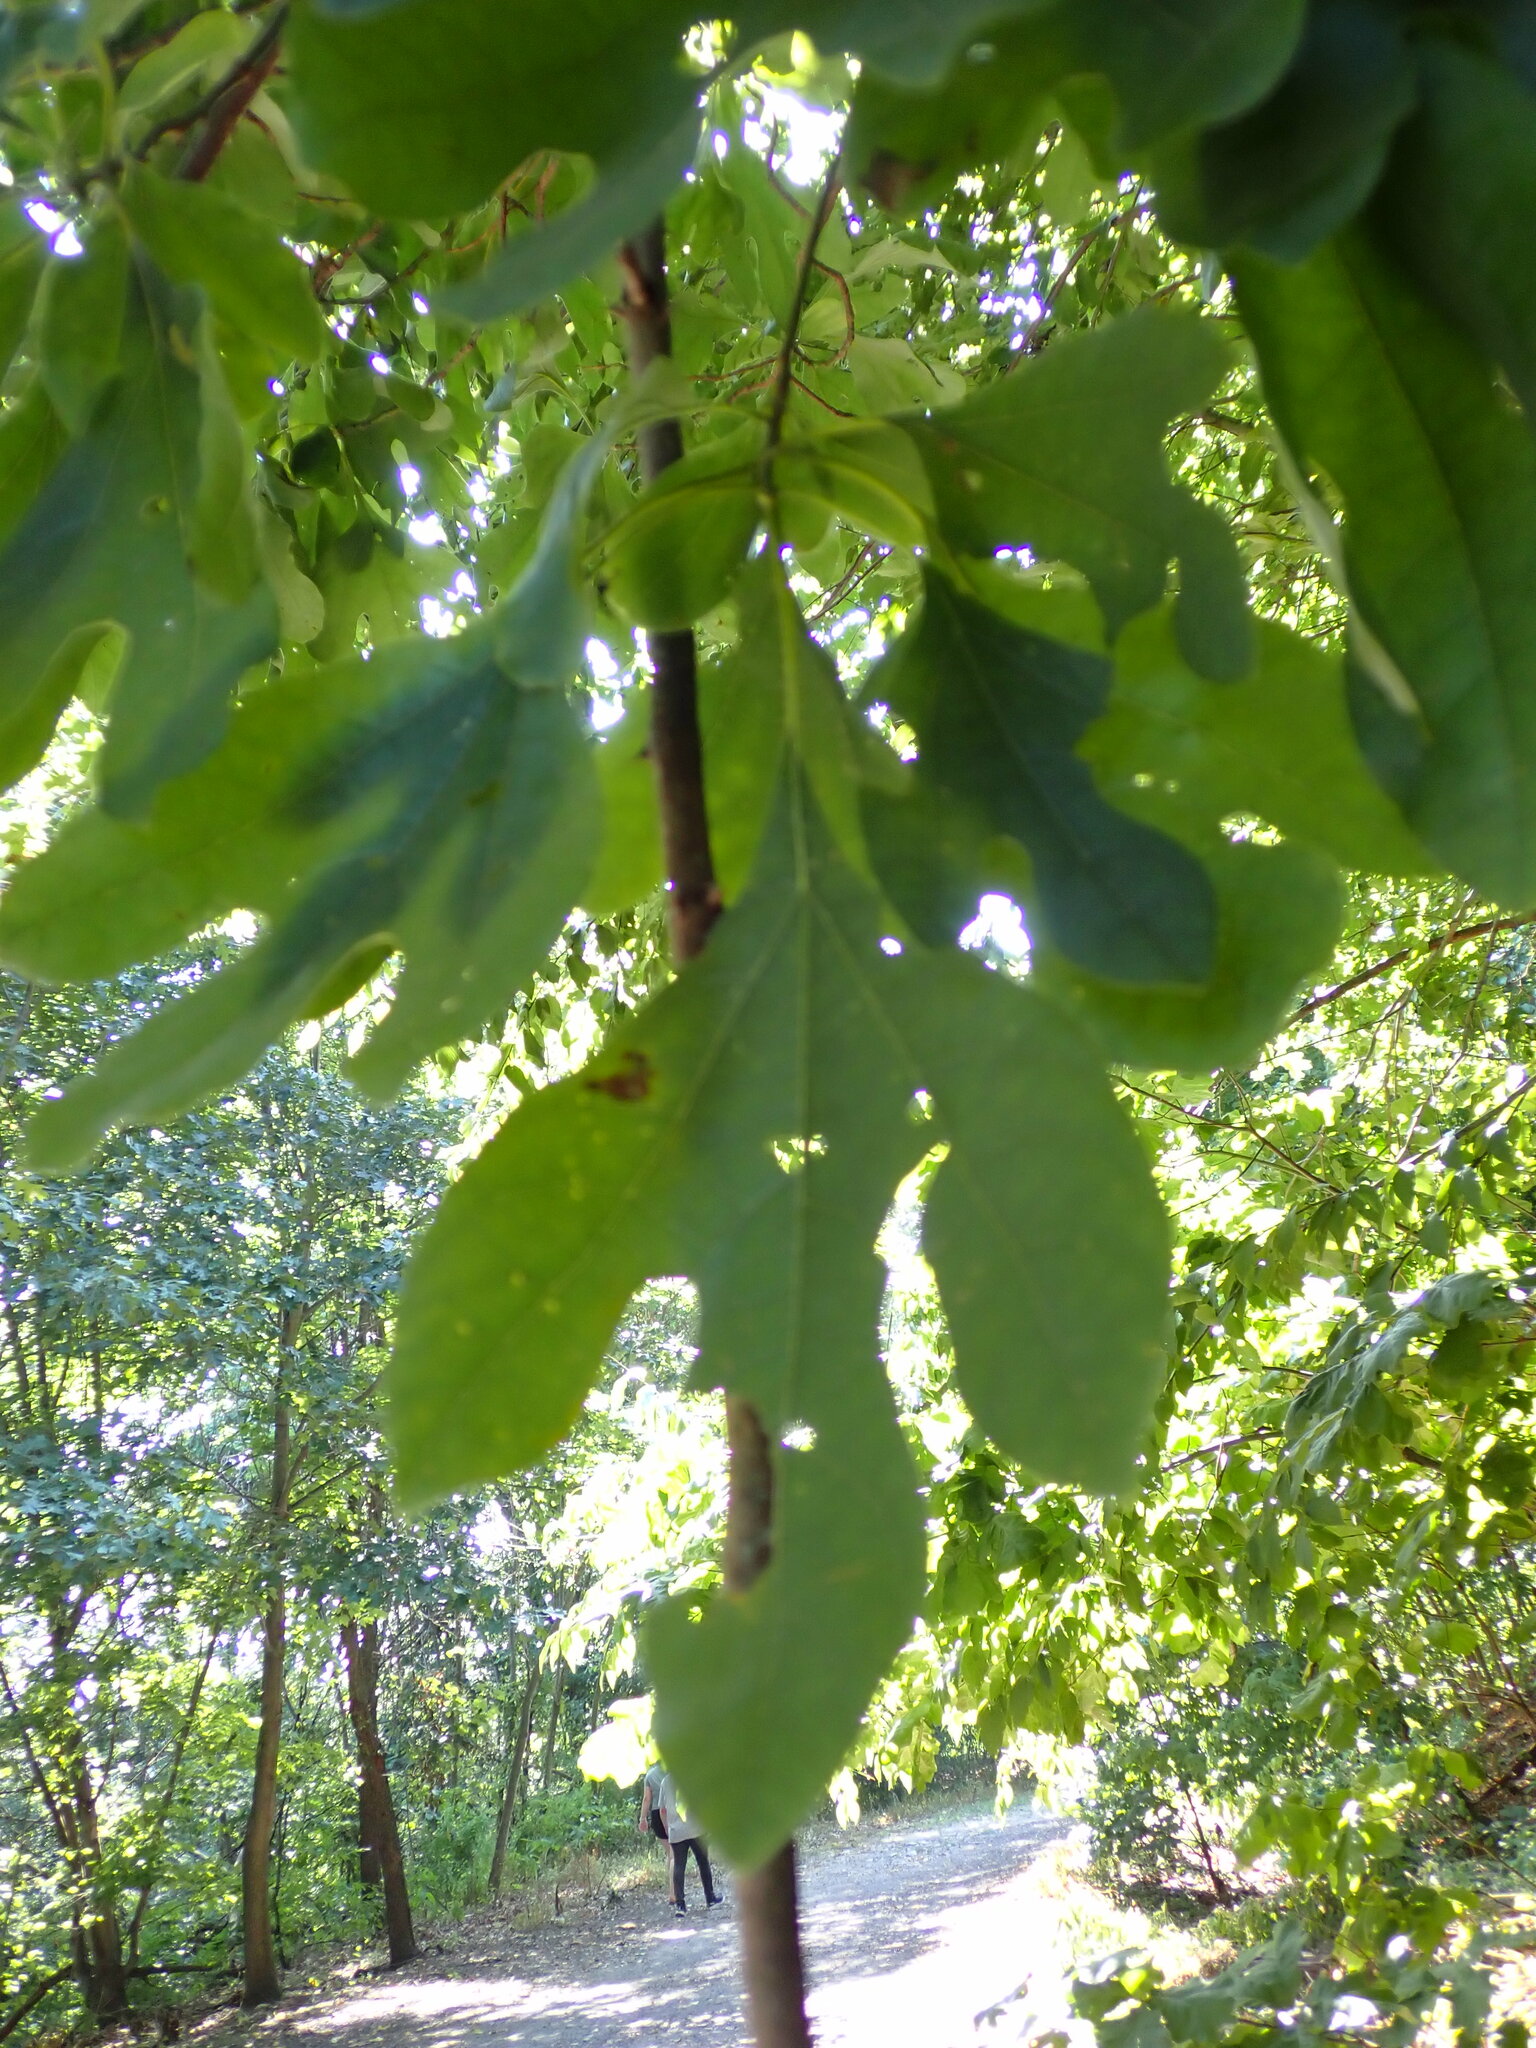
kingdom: Plantae
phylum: Tracheophyta
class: Magnoliopsida
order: Laurales
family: Lauraceae
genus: Sassafras
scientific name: Sassafras albidum
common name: Sassafras
